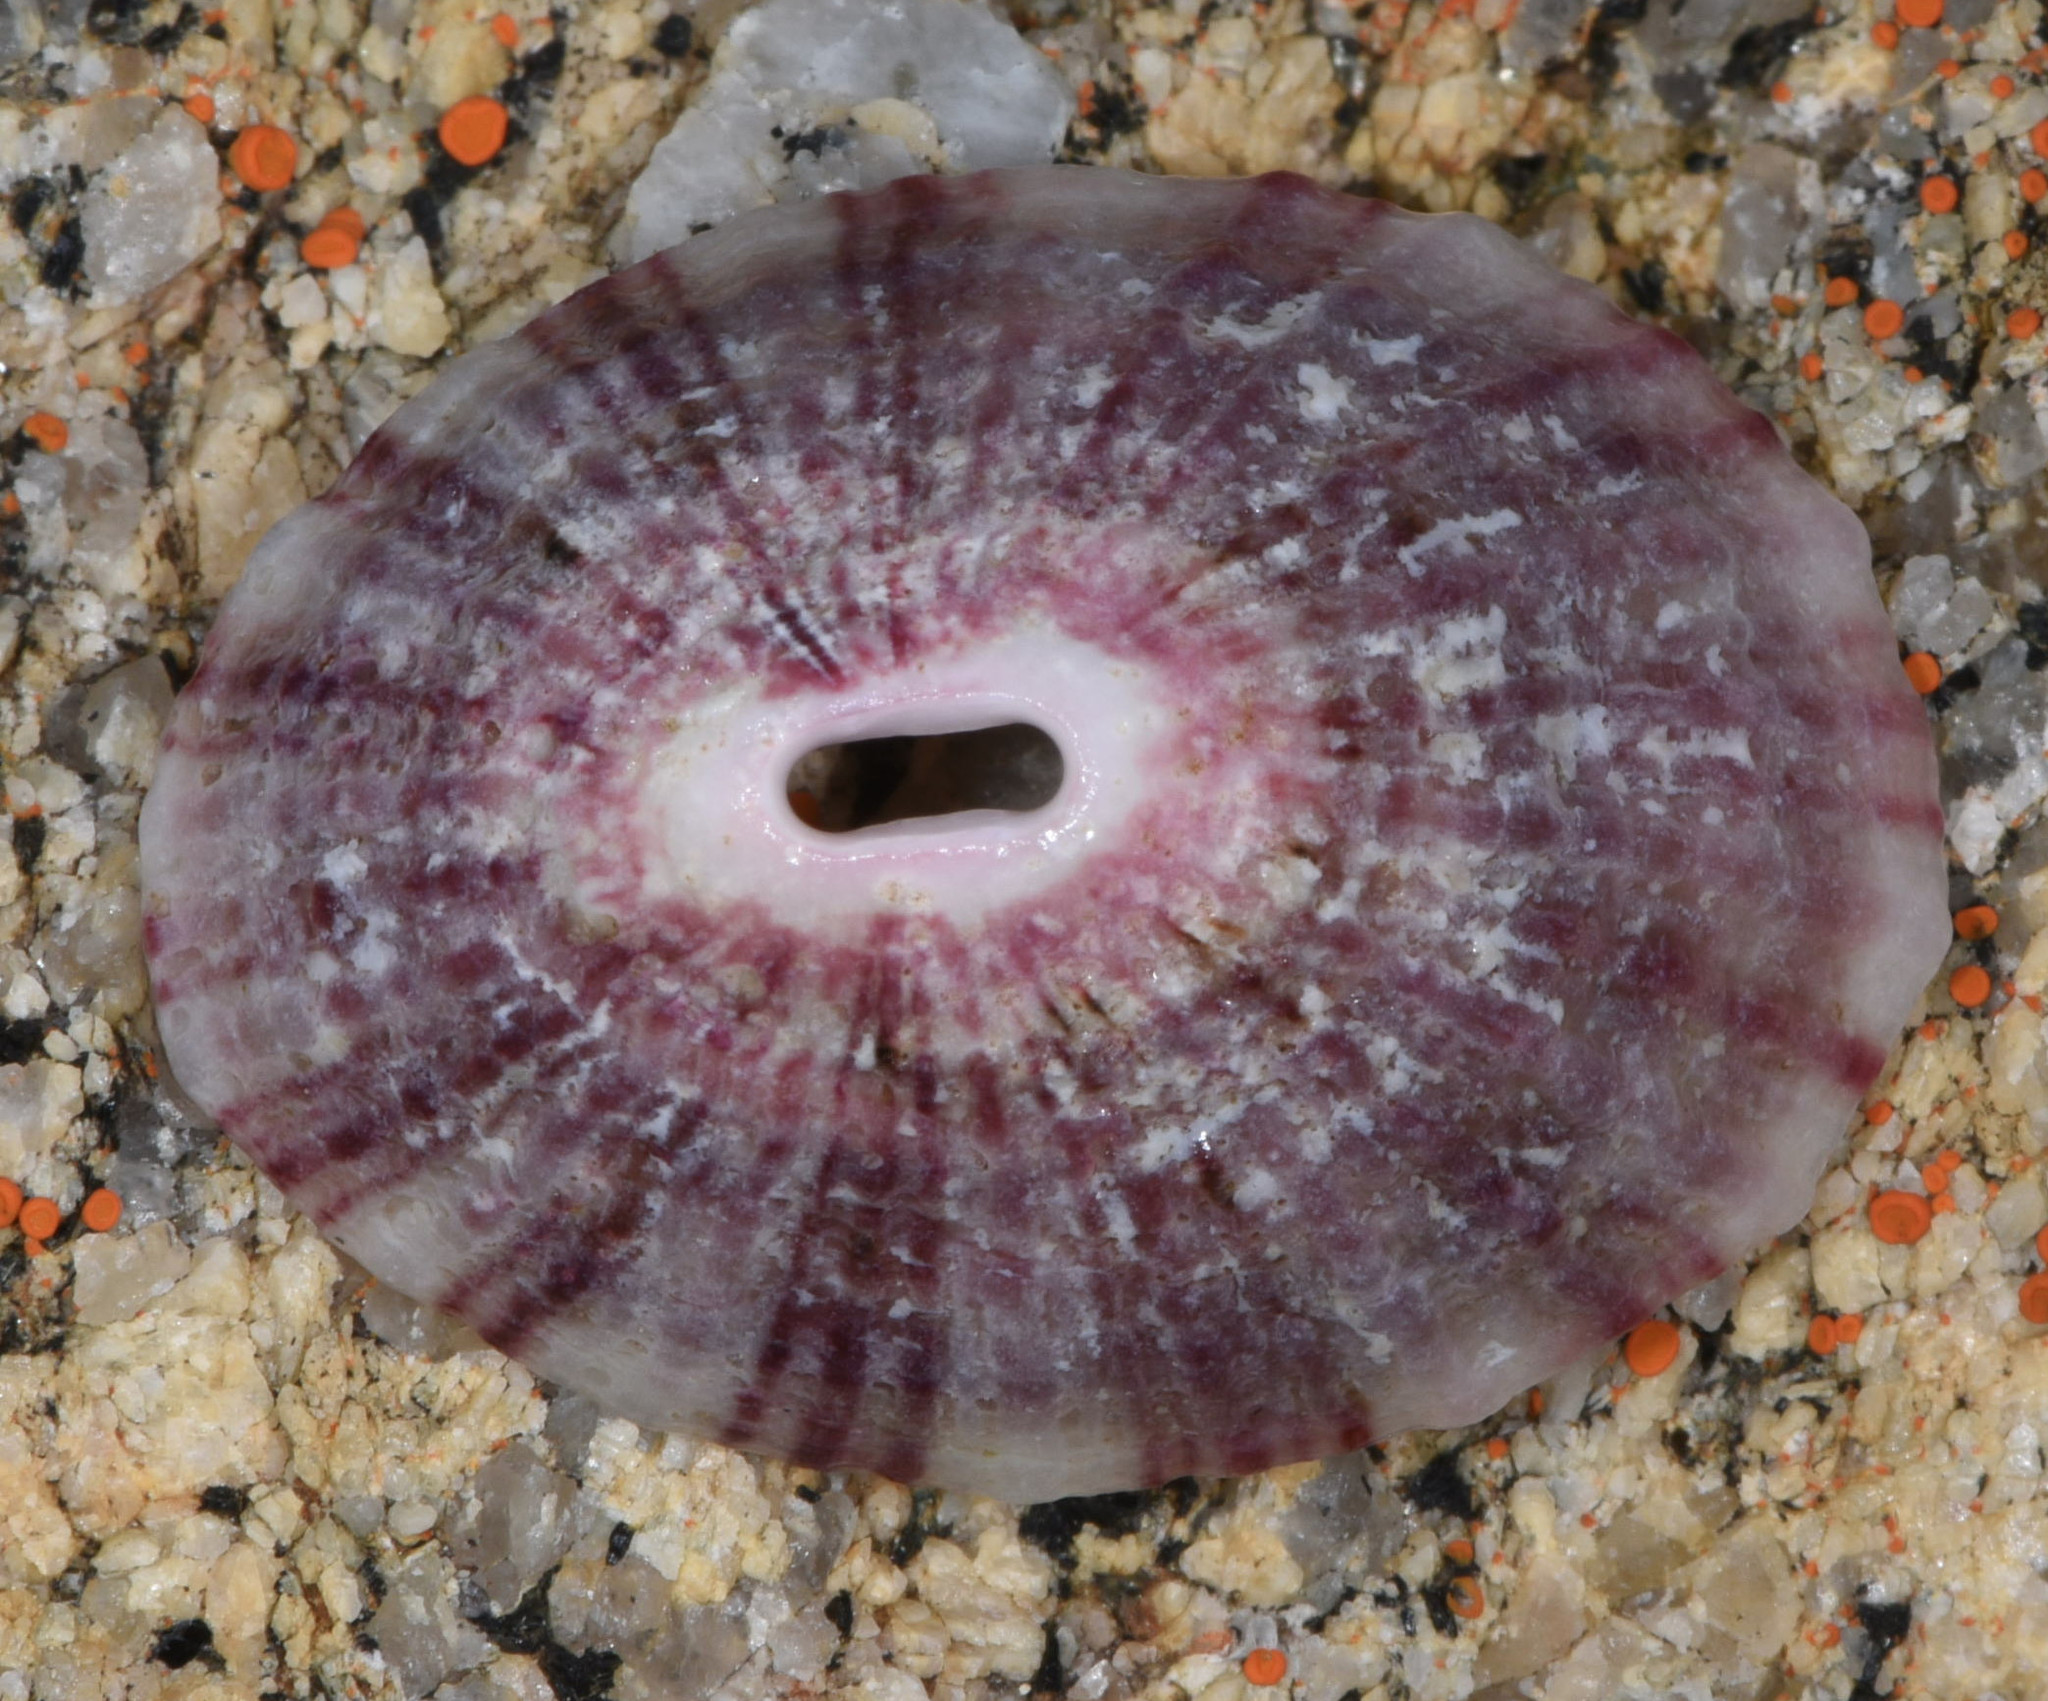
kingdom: Animalia
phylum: Mollusca
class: Gastropoda
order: Lepetellida
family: Fissurellidae
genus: Fissurella
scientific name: Fissurella volcano
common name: Volcano keyhole limpet
